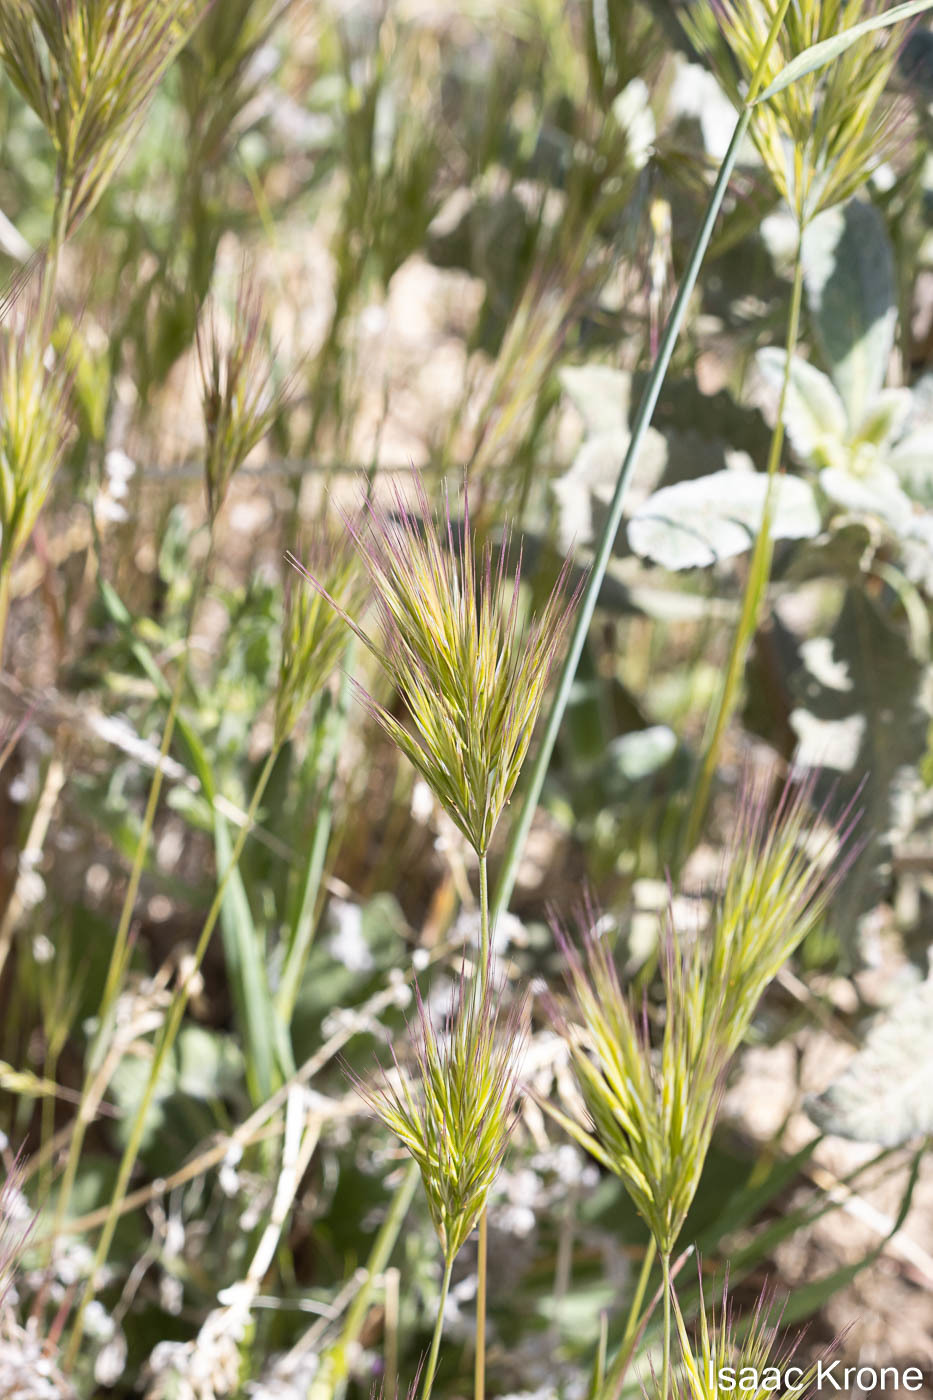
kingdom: Plantae
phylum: Tracheophyta
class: Liliopsida
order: Poales
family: Poaceae
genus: Bromus
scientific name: Bromus rubens
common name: Red brome
